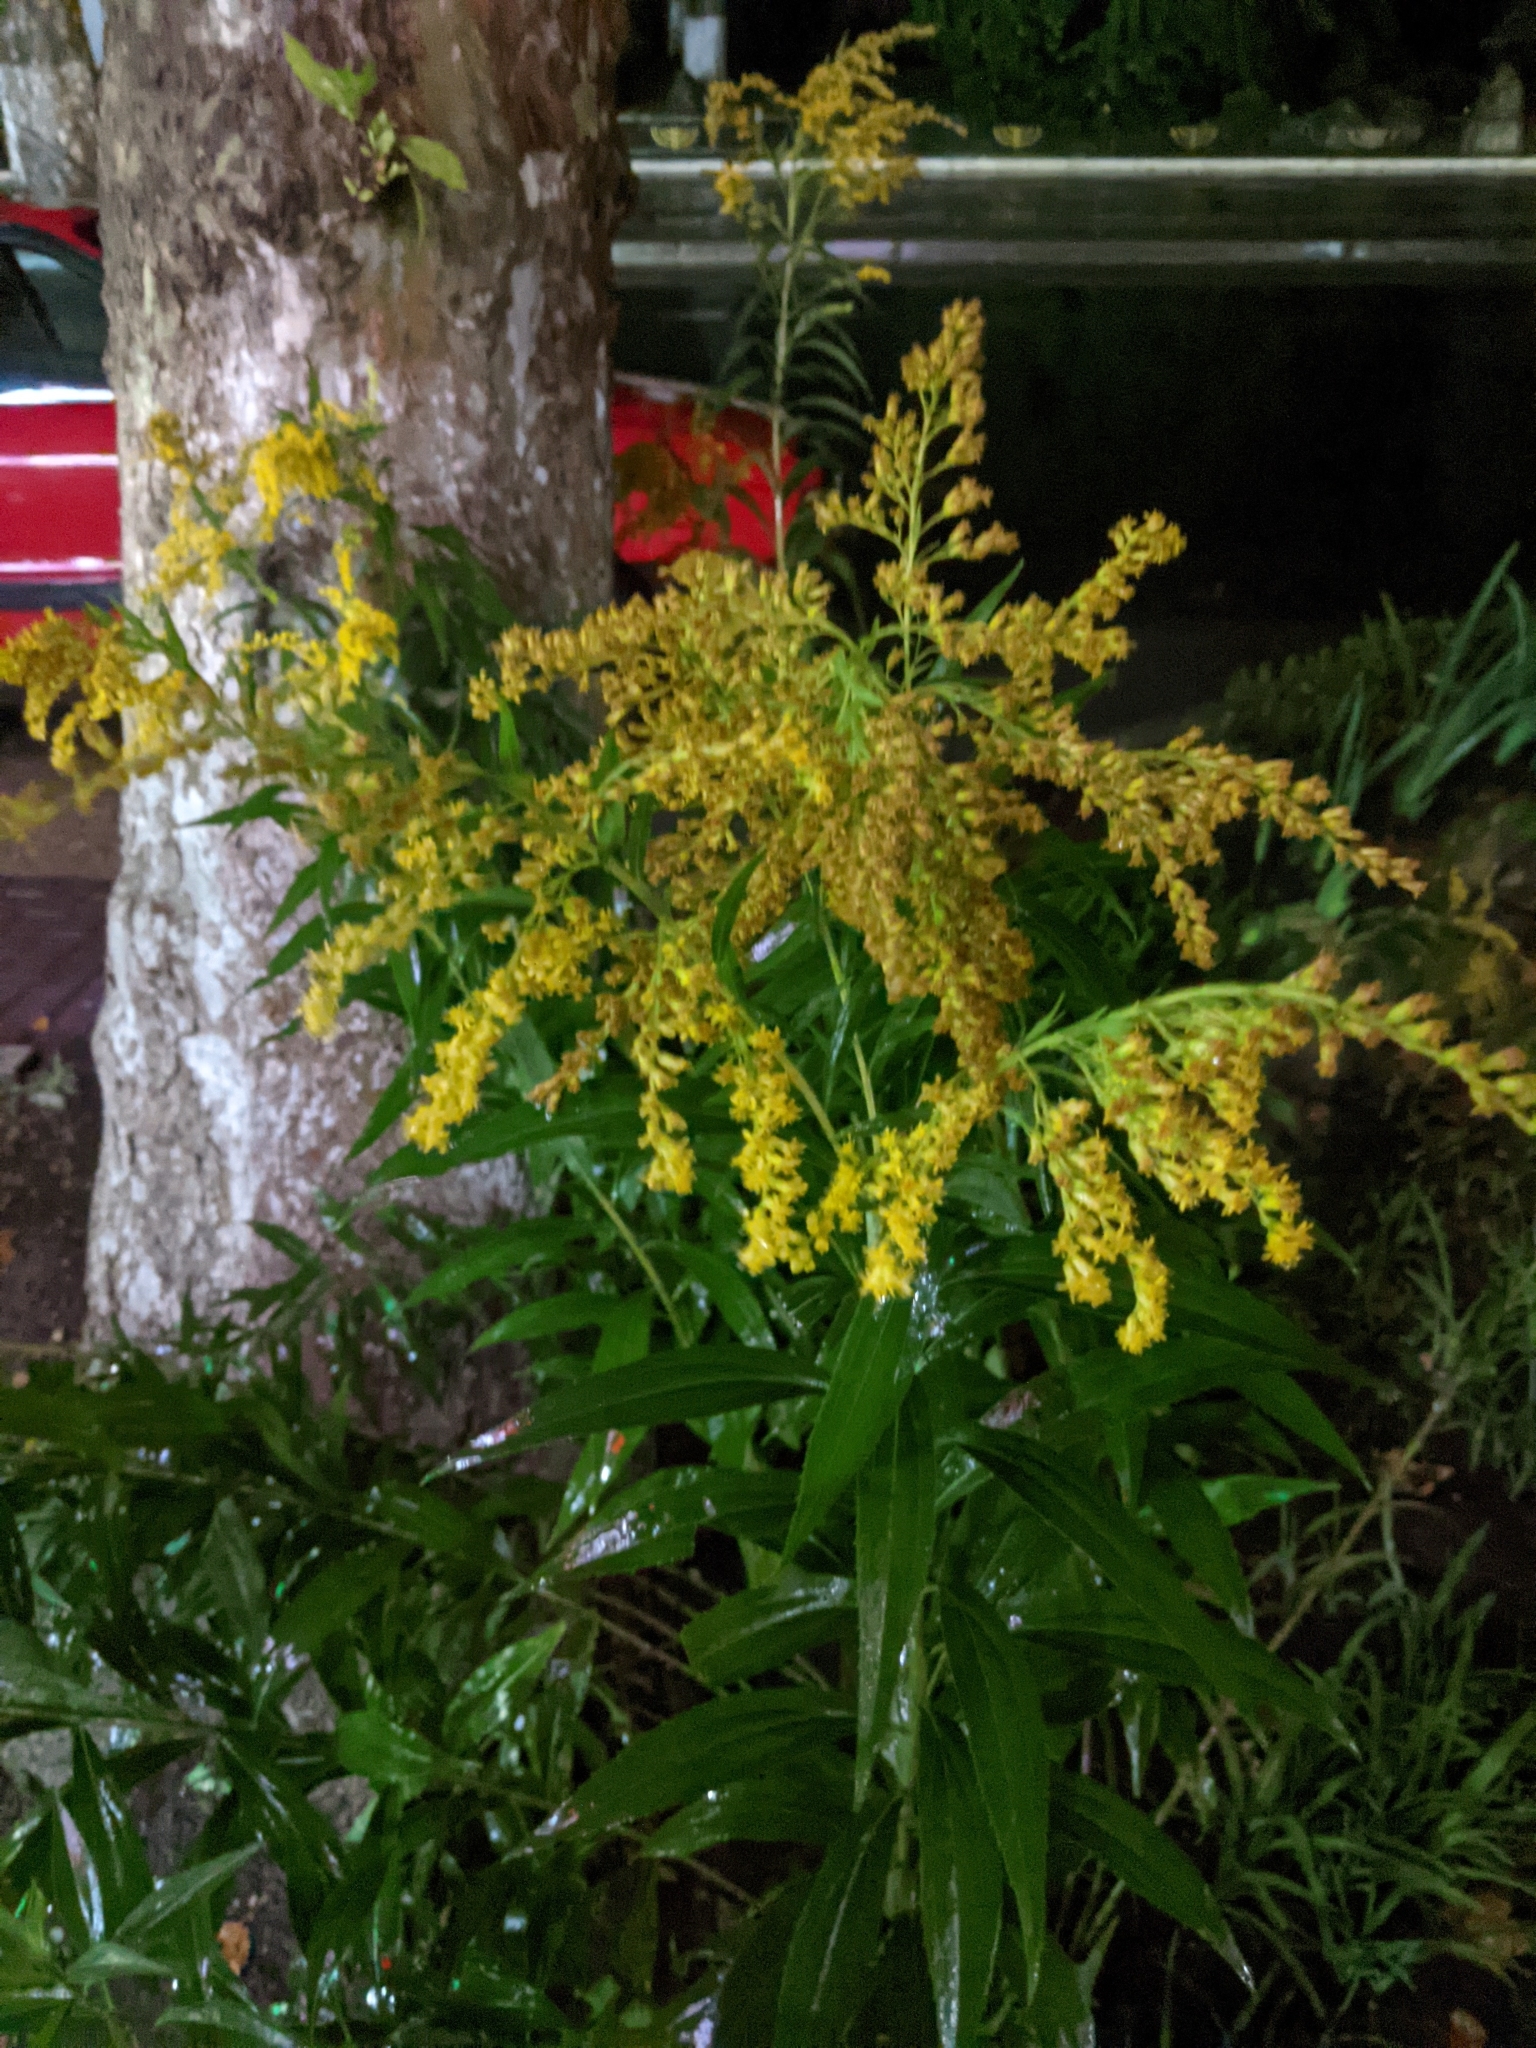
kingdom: Plantae
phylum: Tracheophyta
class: Magnoliopsida
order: Asterales
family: Asteraceae
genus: Solidago
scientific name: Solidago canadensis
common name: Canada goldenrod
